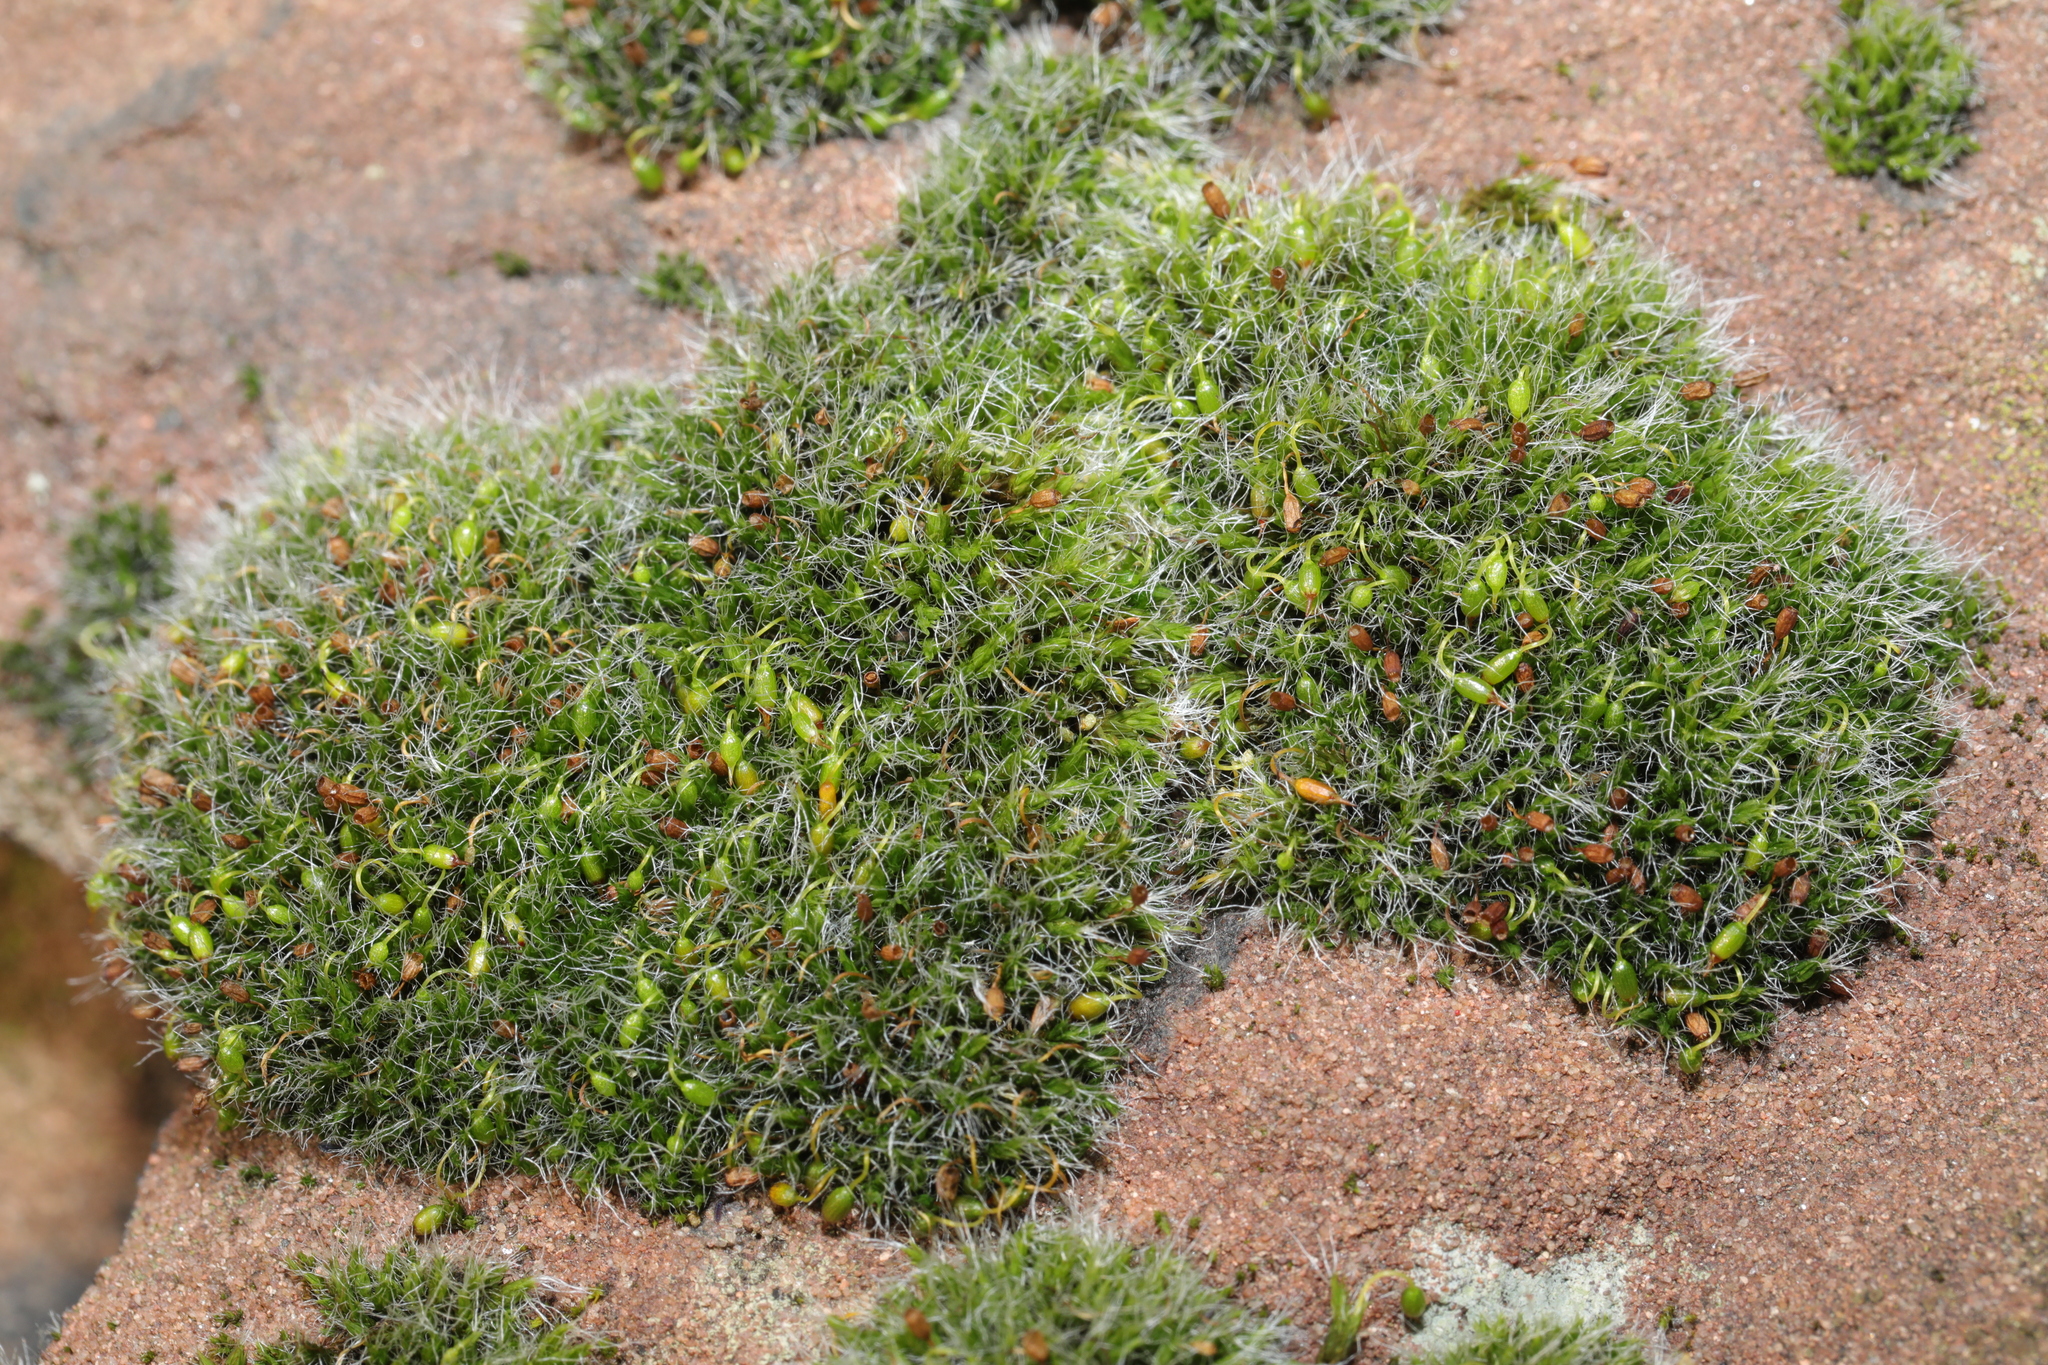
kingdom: Plantae
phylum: Bryophyta
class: Bryopsida
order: Grimmiales
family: Grimmiaceae
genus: Grimmia
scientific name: Grimmia pulvinata
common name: Grey-cushioned grimmia
